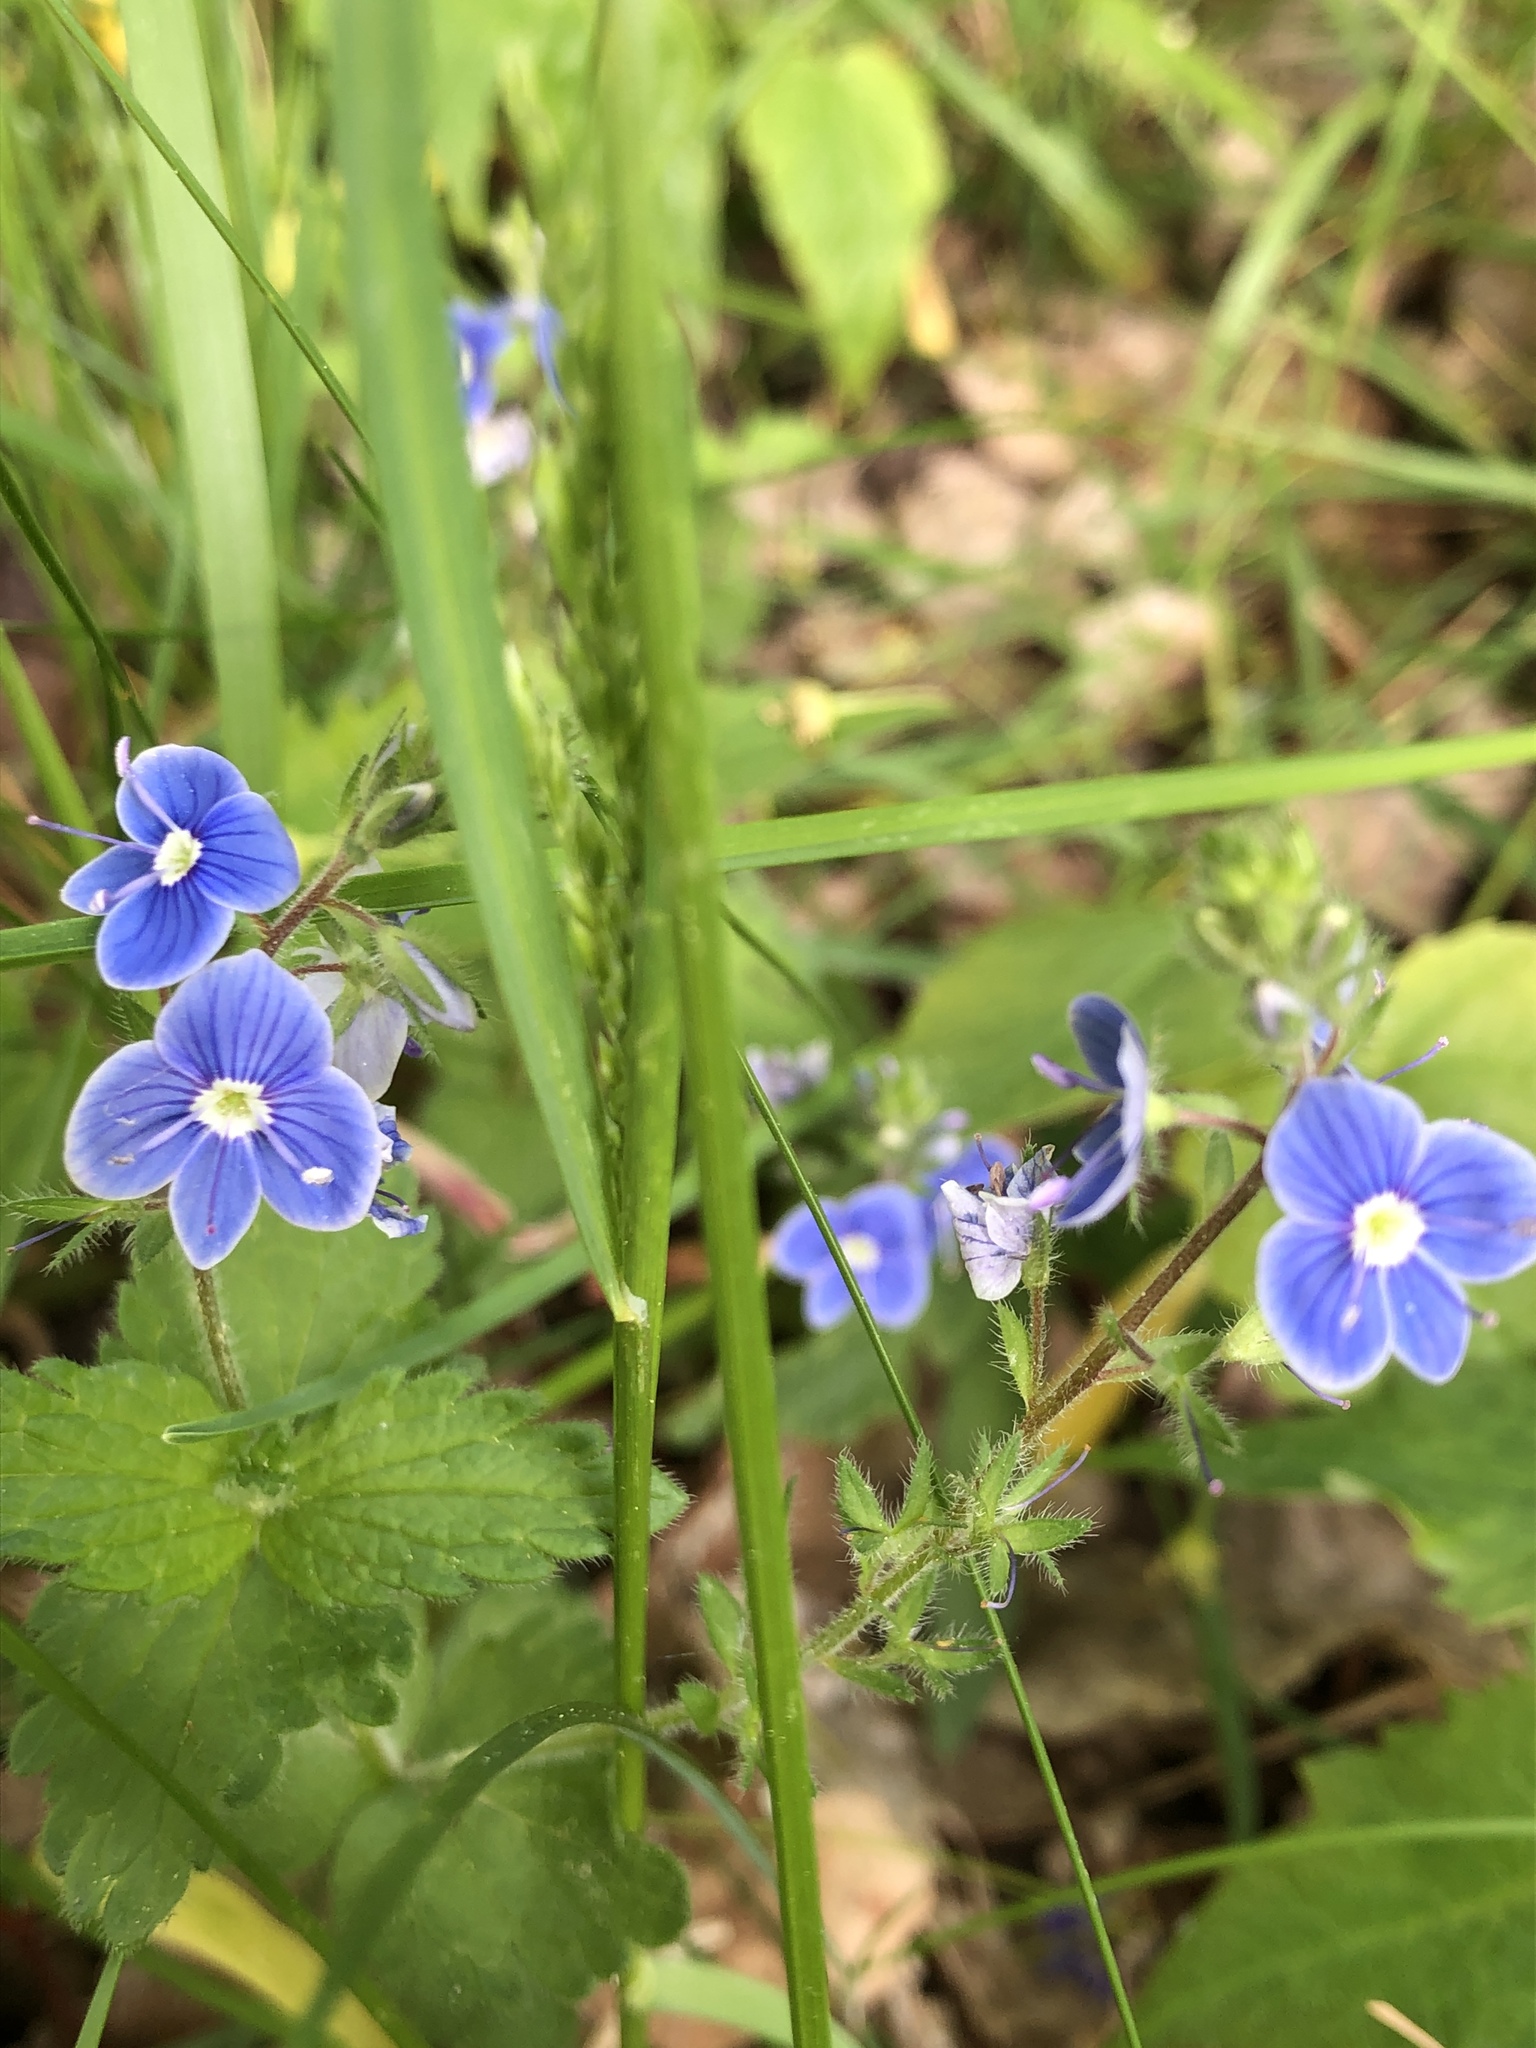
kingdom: Plantae
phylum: Tracheophyta
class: Magnoliopsida
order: Lamiales
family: Plantaginaceae
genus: Veronica
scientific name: Veronica chamaedrys
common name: Germander speedwell
